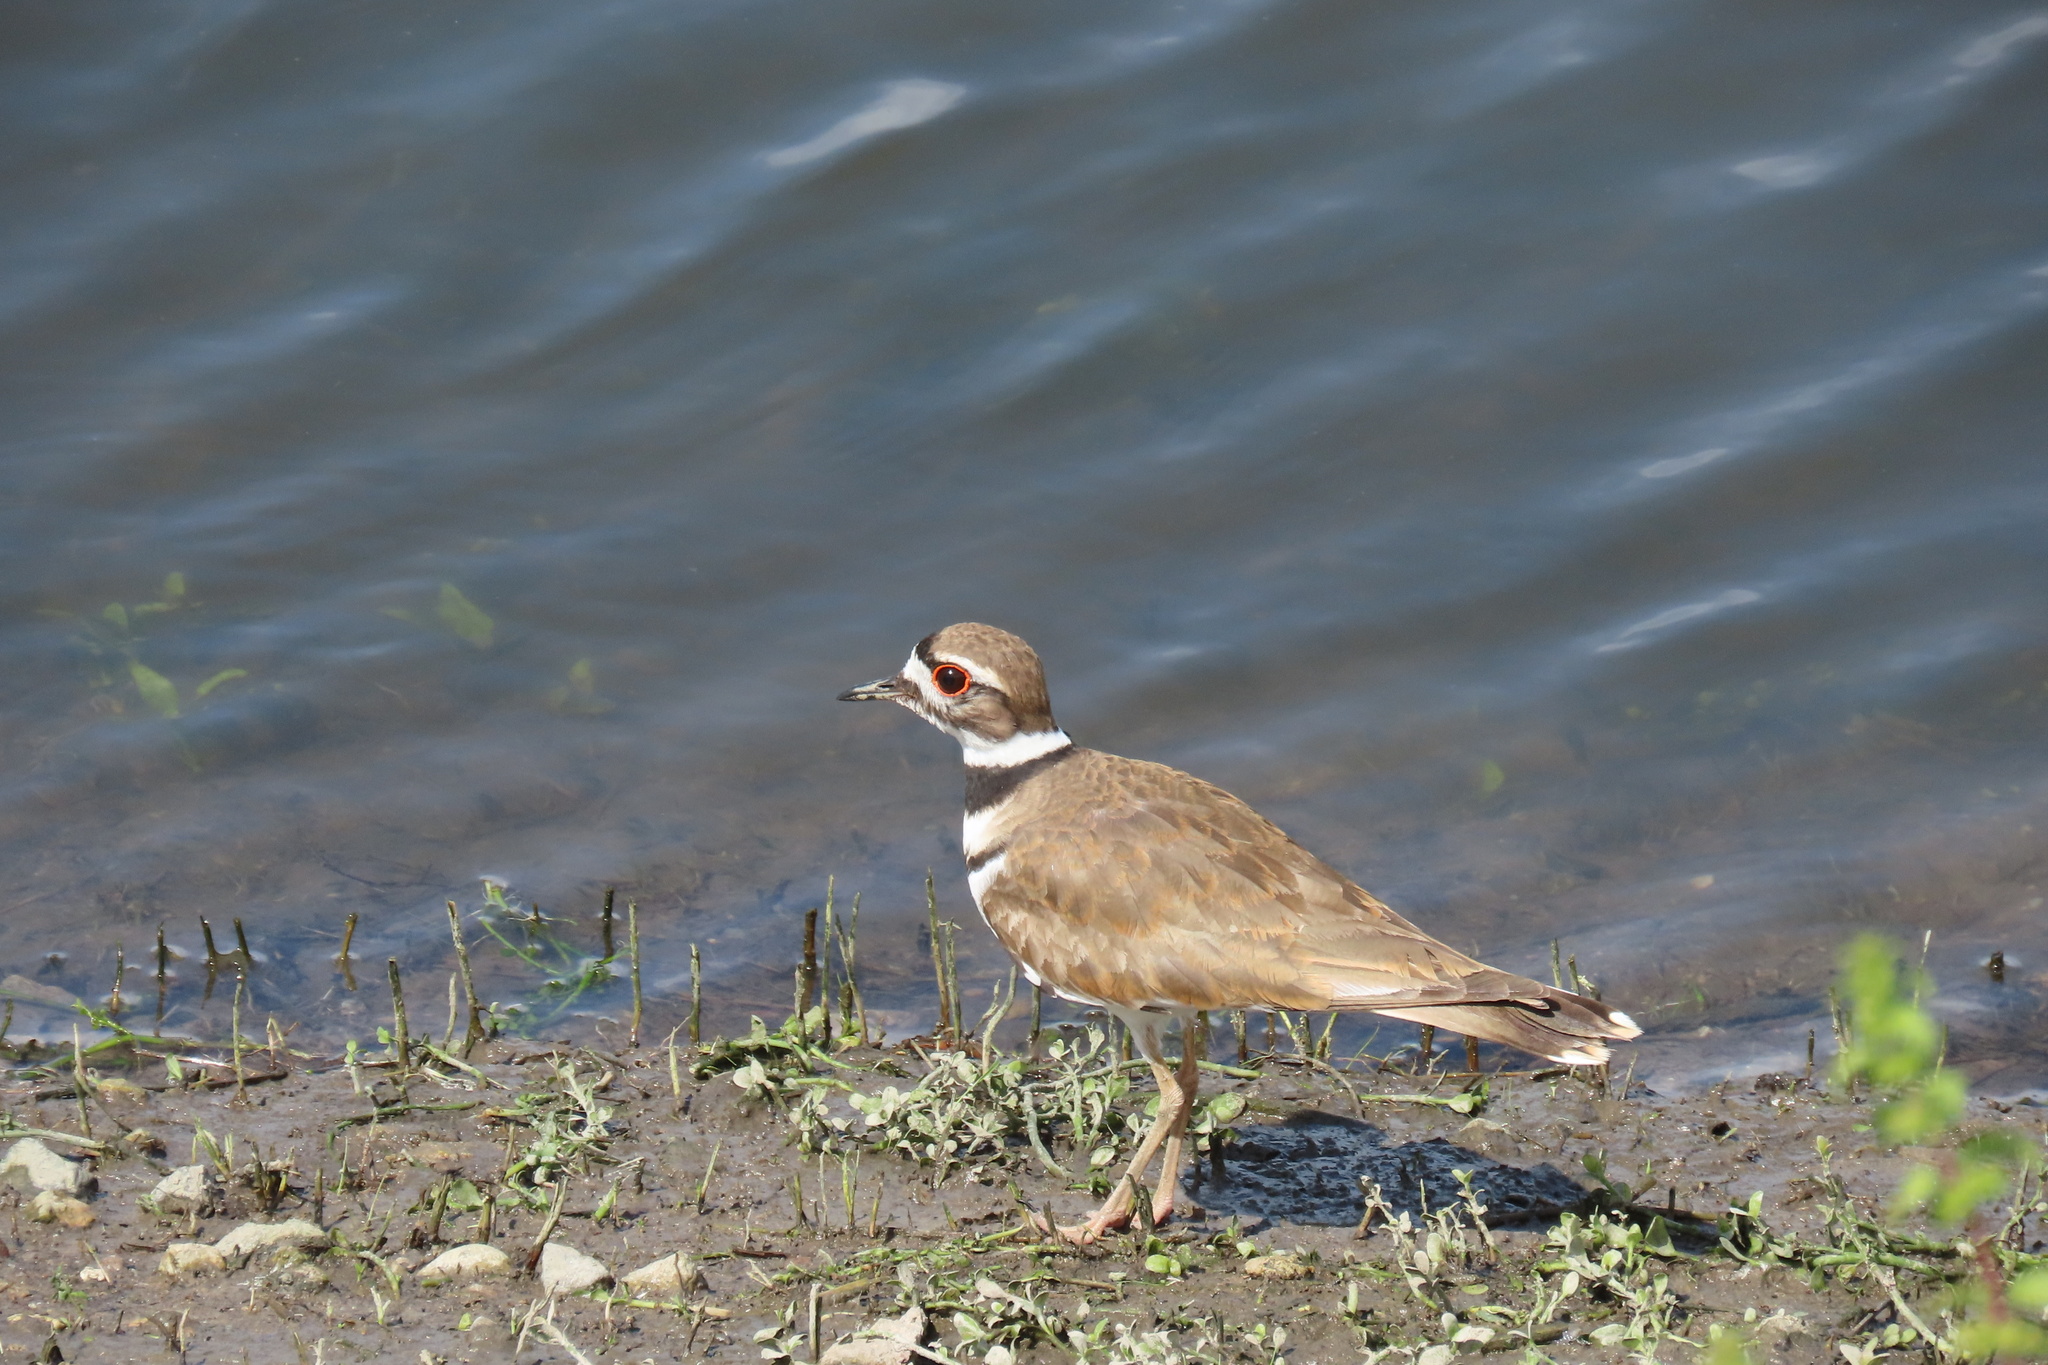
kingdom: Animalia
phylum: Chordata
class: Aves
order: Charadriiformes
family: Charadriidae
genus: Charadrius
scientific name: Charadrius vociferus
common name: Killdeer
